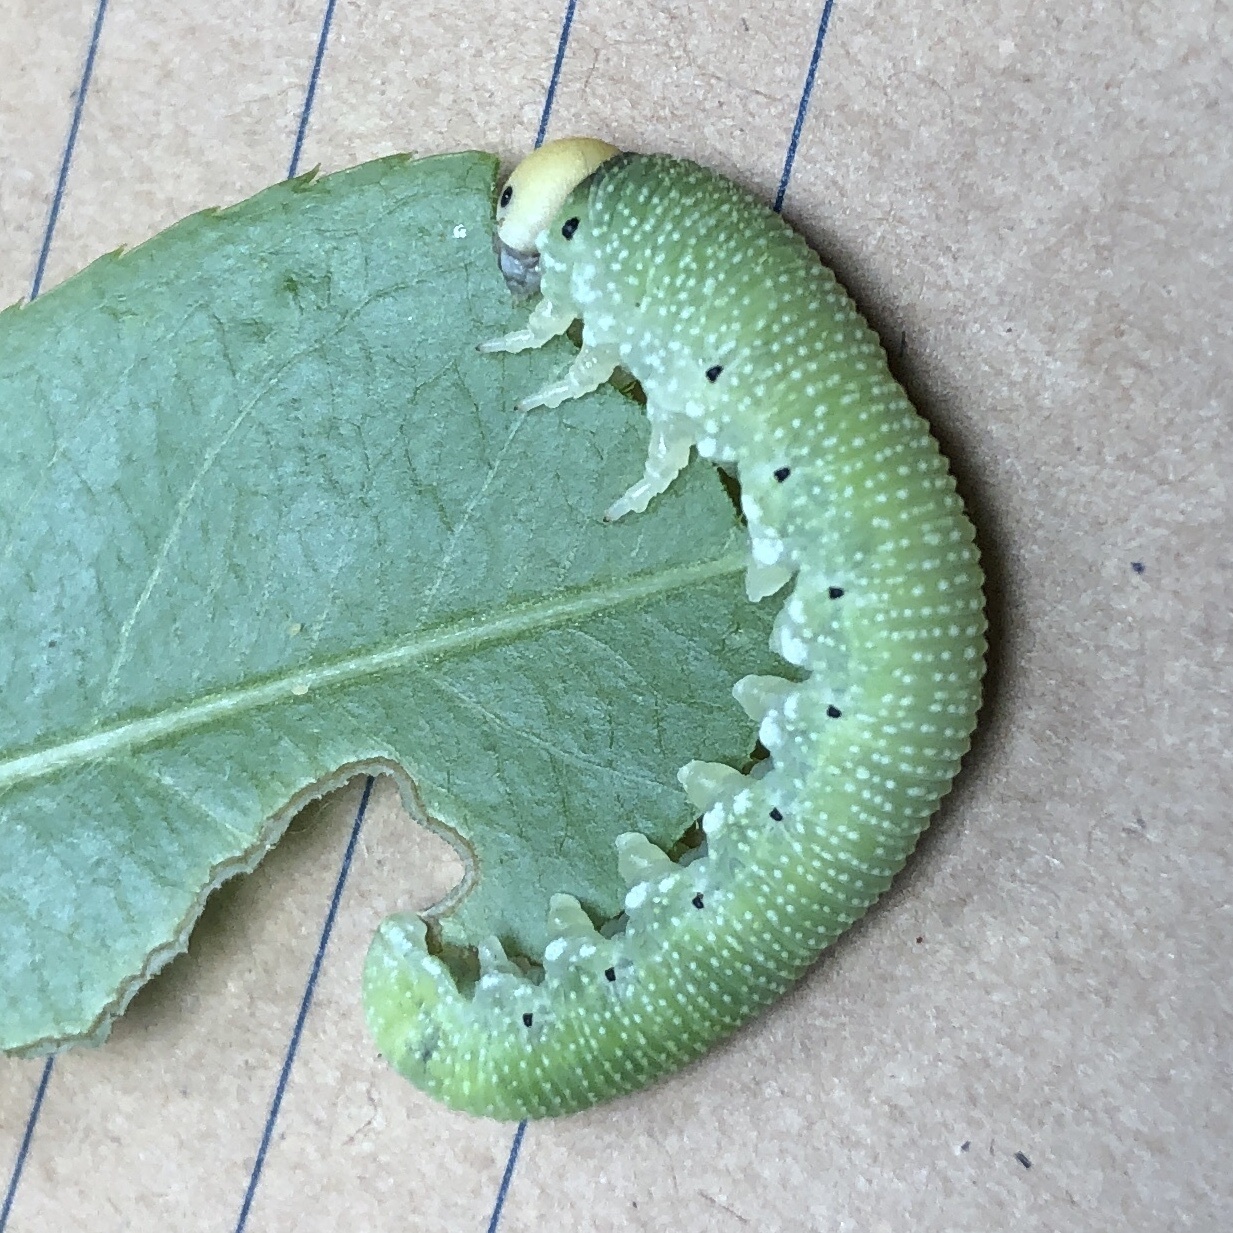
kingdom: Animalia
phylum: Arthropoda
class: Insecta
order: Hymenoptera
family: Cimbicidae
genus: Trichiosoma
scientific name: Trichiosoma triangulum
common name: Giant birch sawfly
